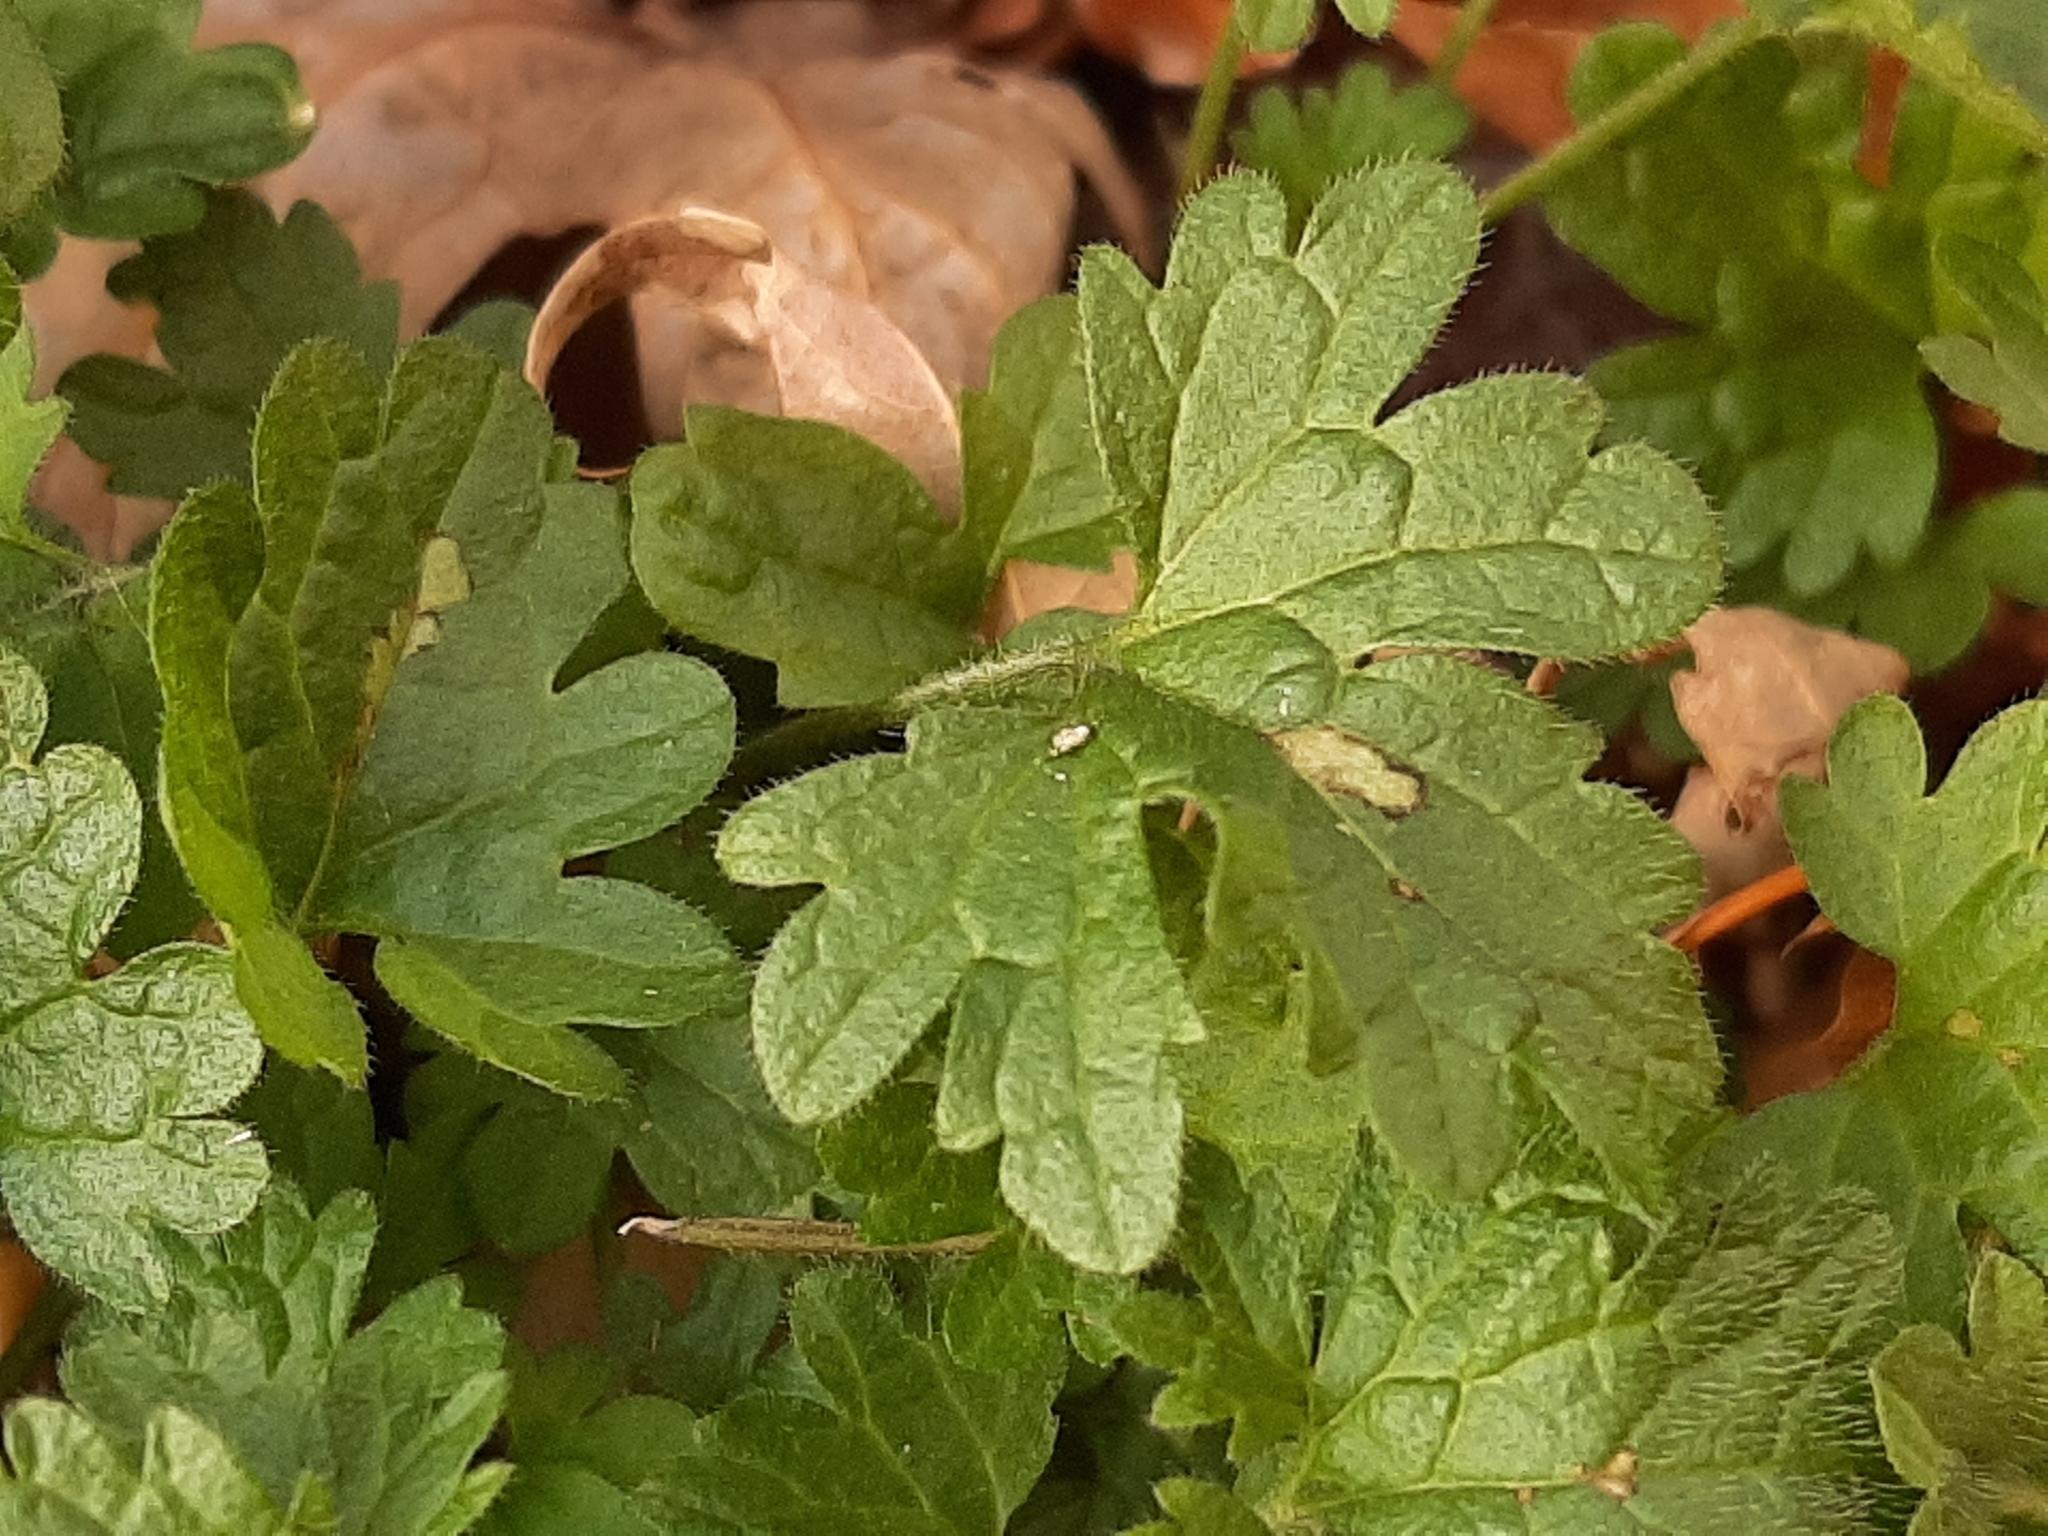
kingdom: Plantae
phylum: Tracheophyta
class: Magnoliopsida
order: Lamiales
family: Lamiaceae
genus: Lamium
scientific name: Lamium amplexicaule
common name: Henbit dead-nettle
